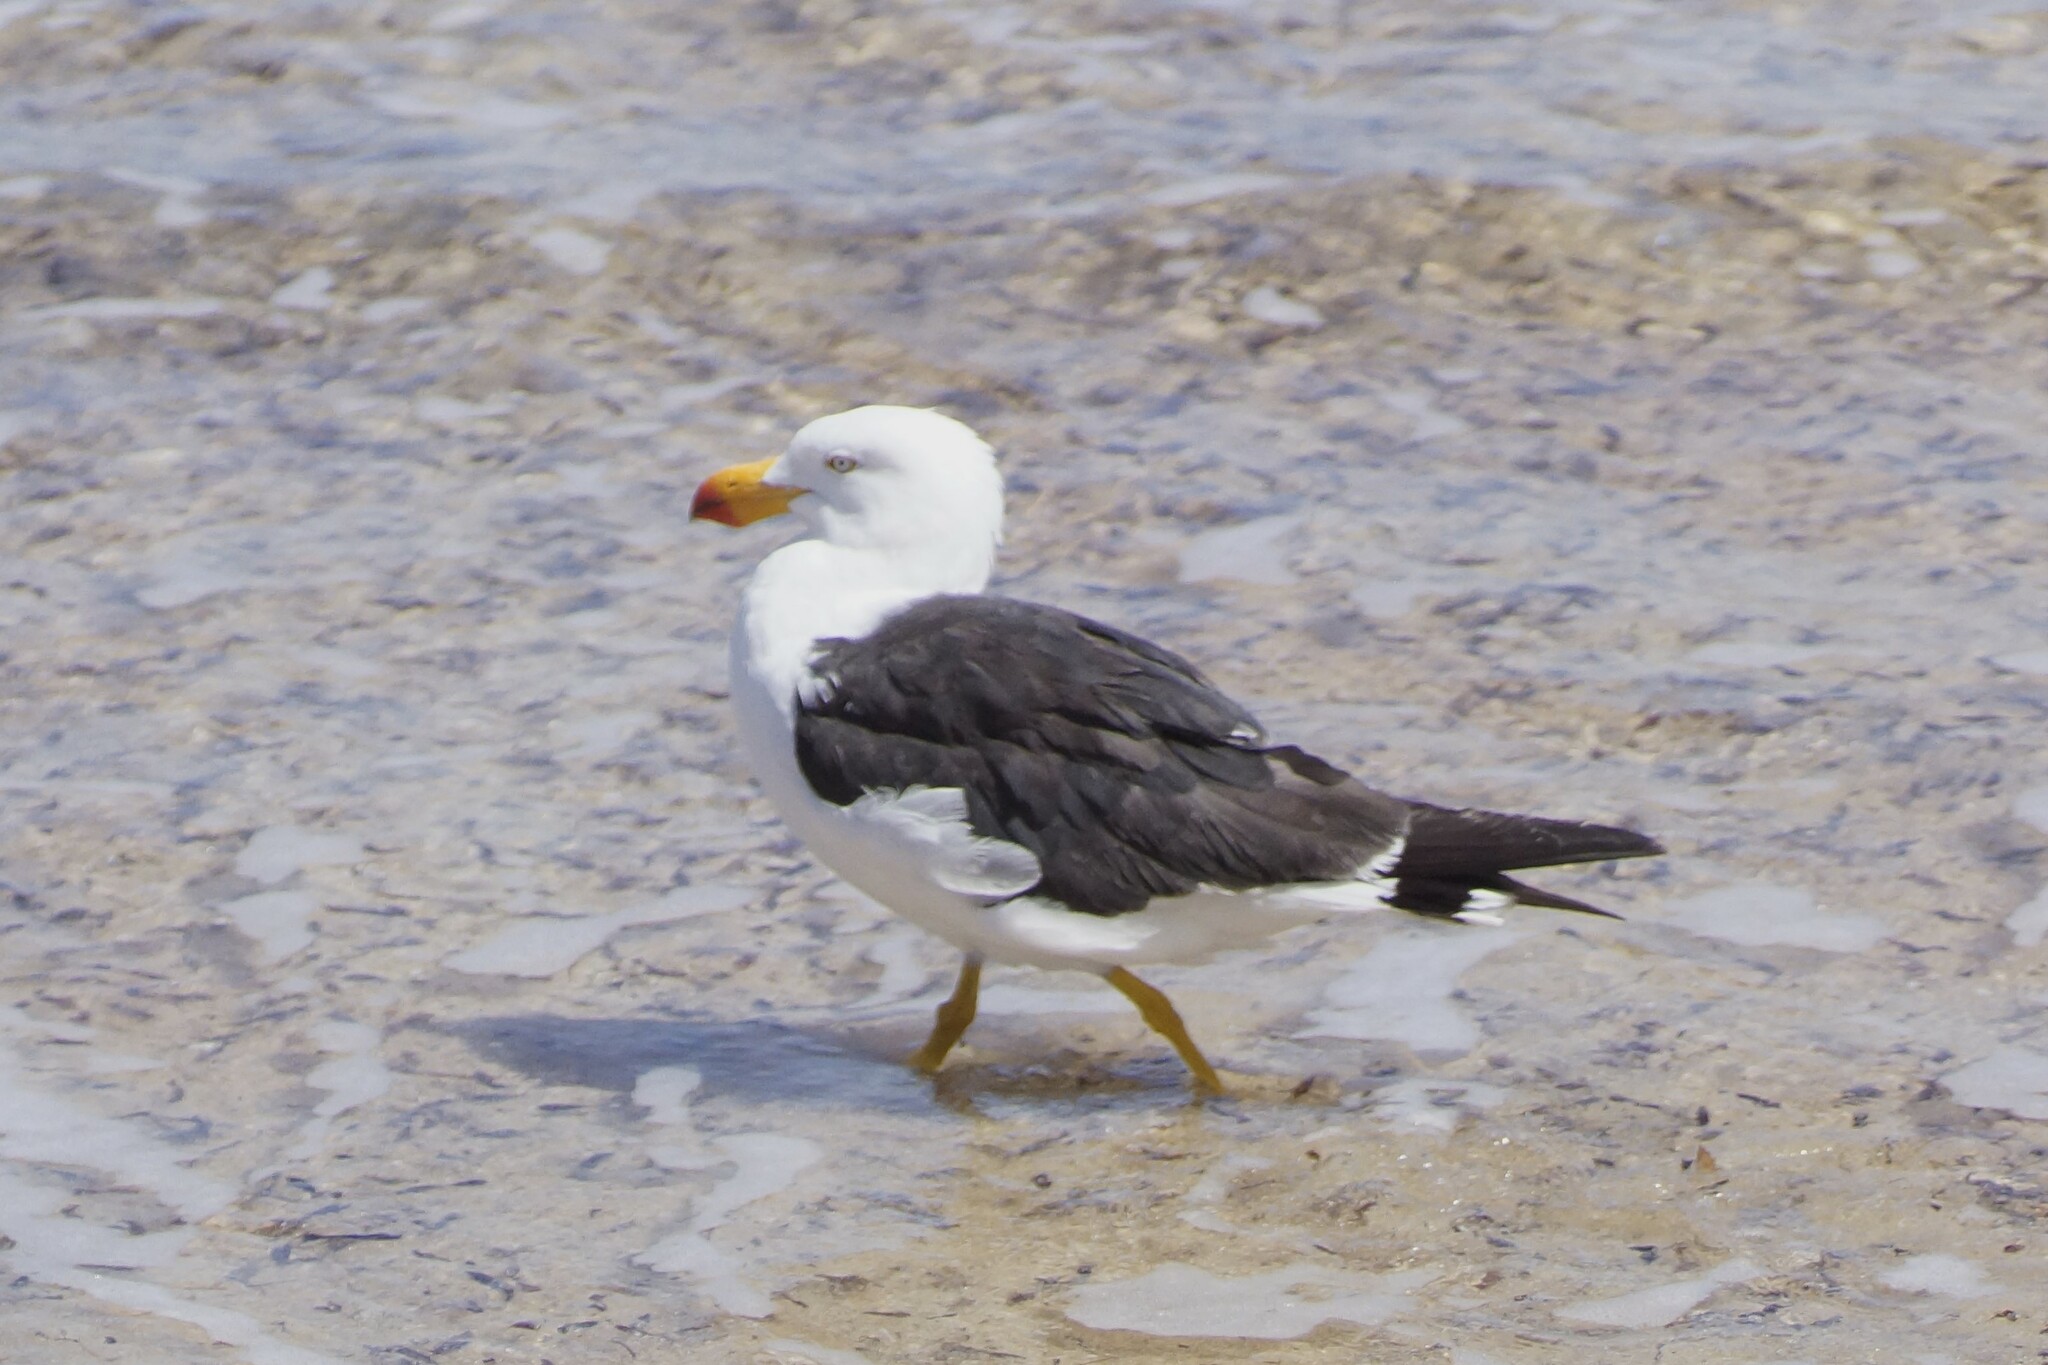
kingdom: Animalia
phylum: Chordata
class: Aves
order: Charadriiformes
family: Laridae
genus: Larus
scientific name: Larus pacificus
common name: Pacific gull
